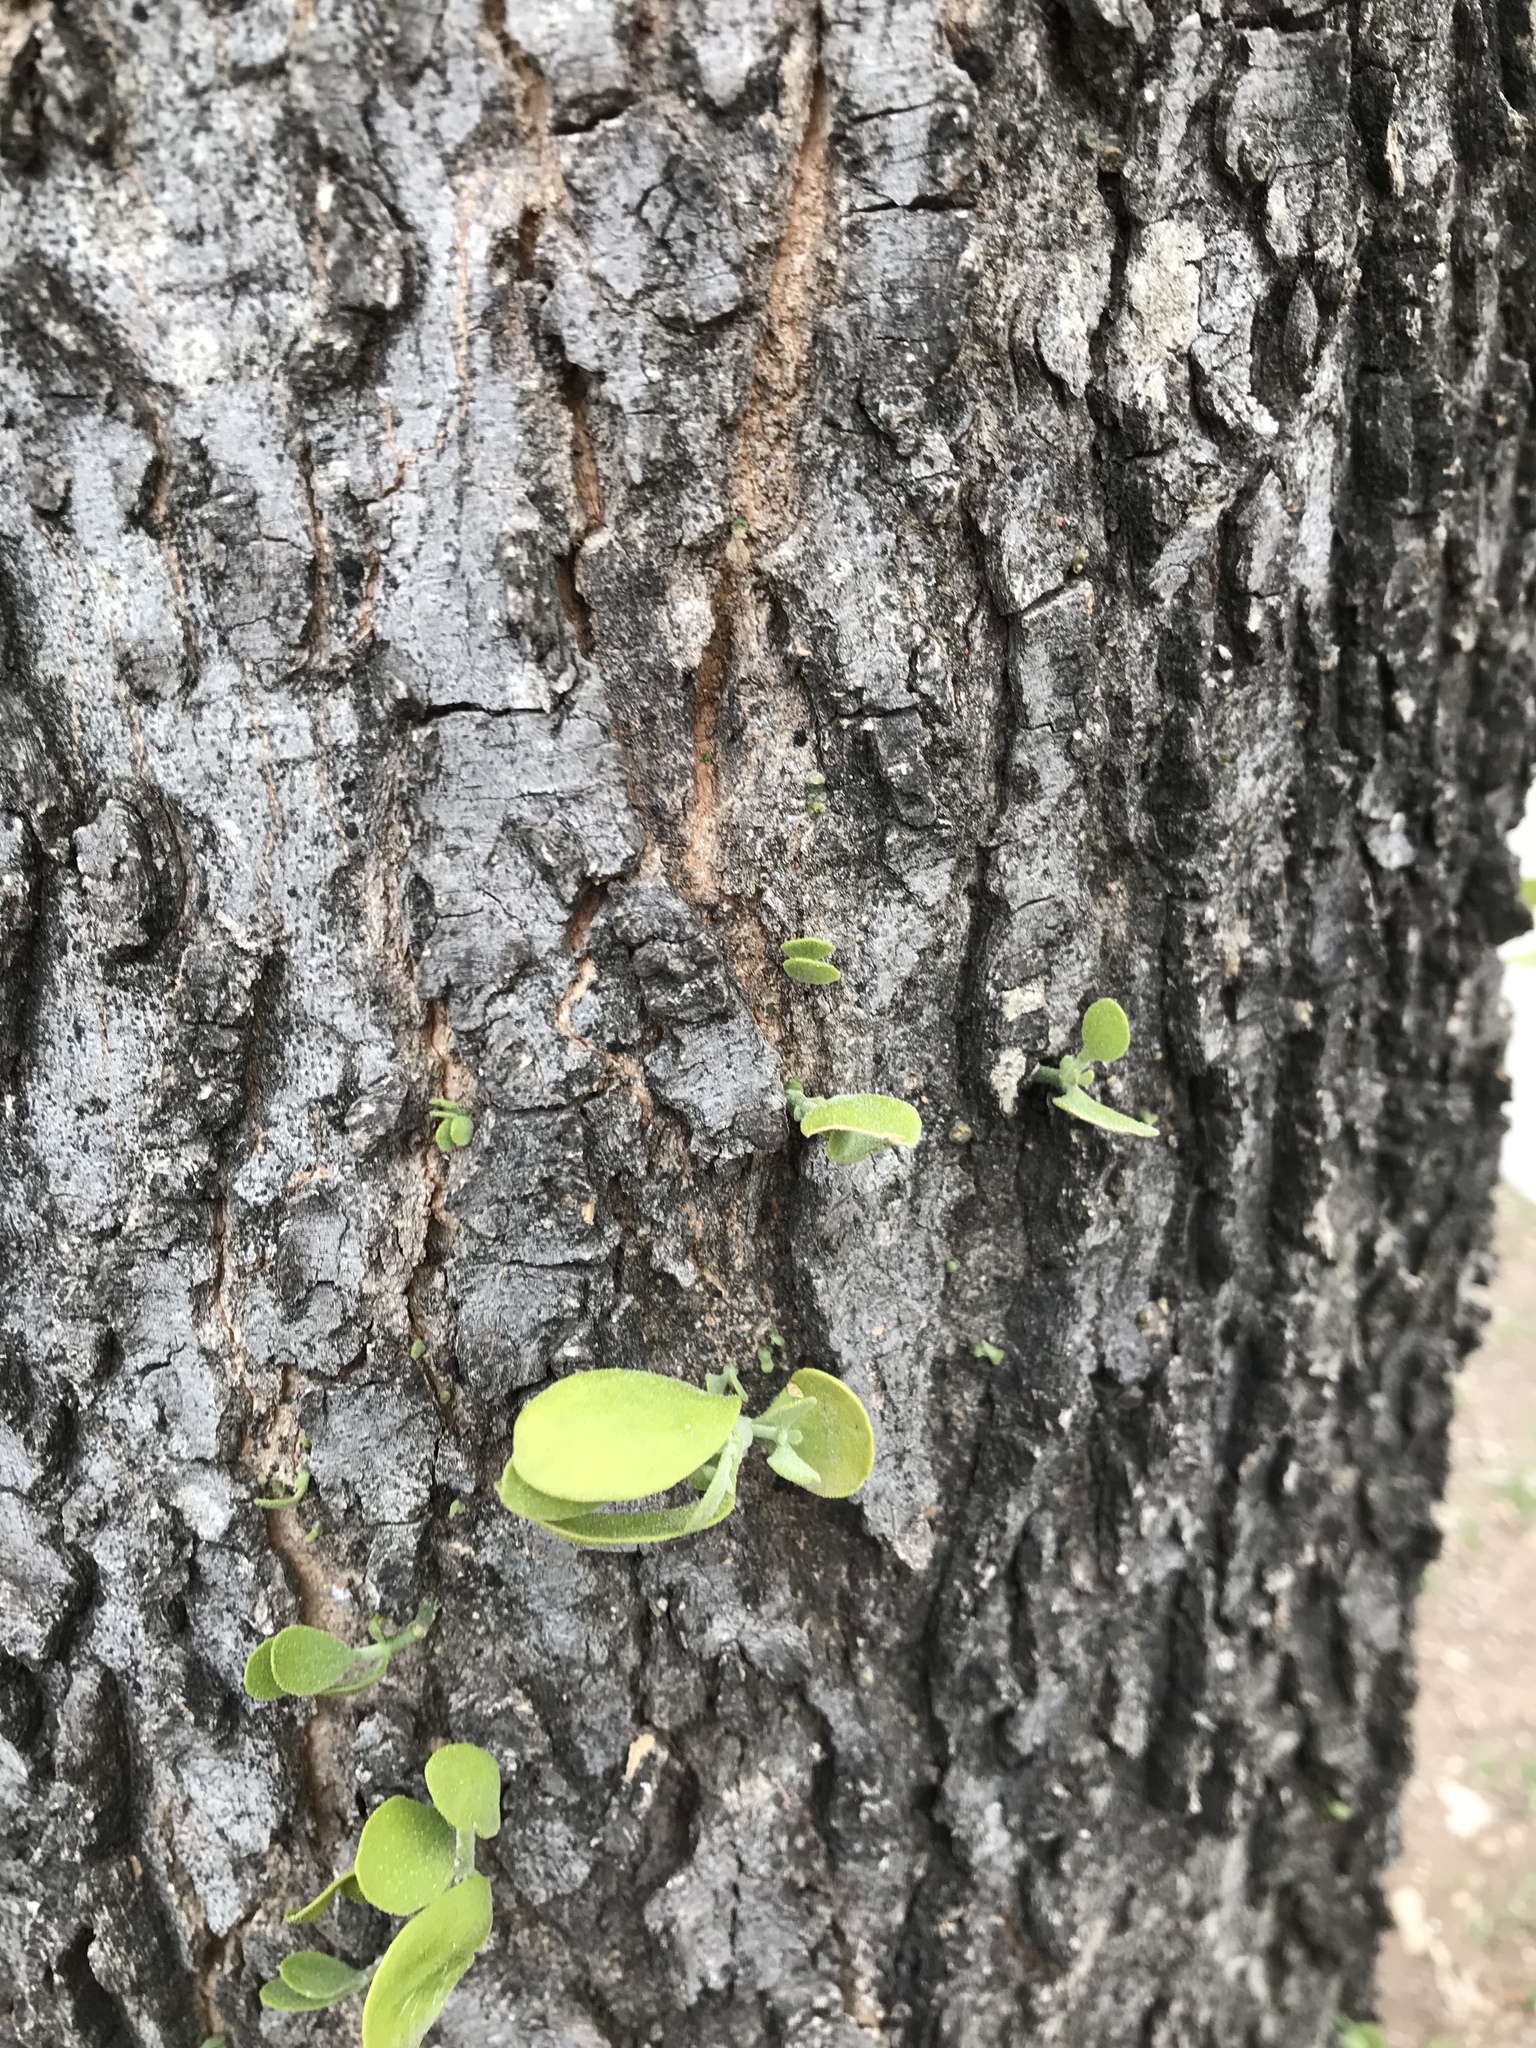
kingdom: Plantae
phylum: Tracheophyta
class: Magnoliopsida
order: Santalales
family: Viscaceae
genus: Phoradendron
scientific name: Phoradendron leucarpum
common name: Pacific mistletoe
